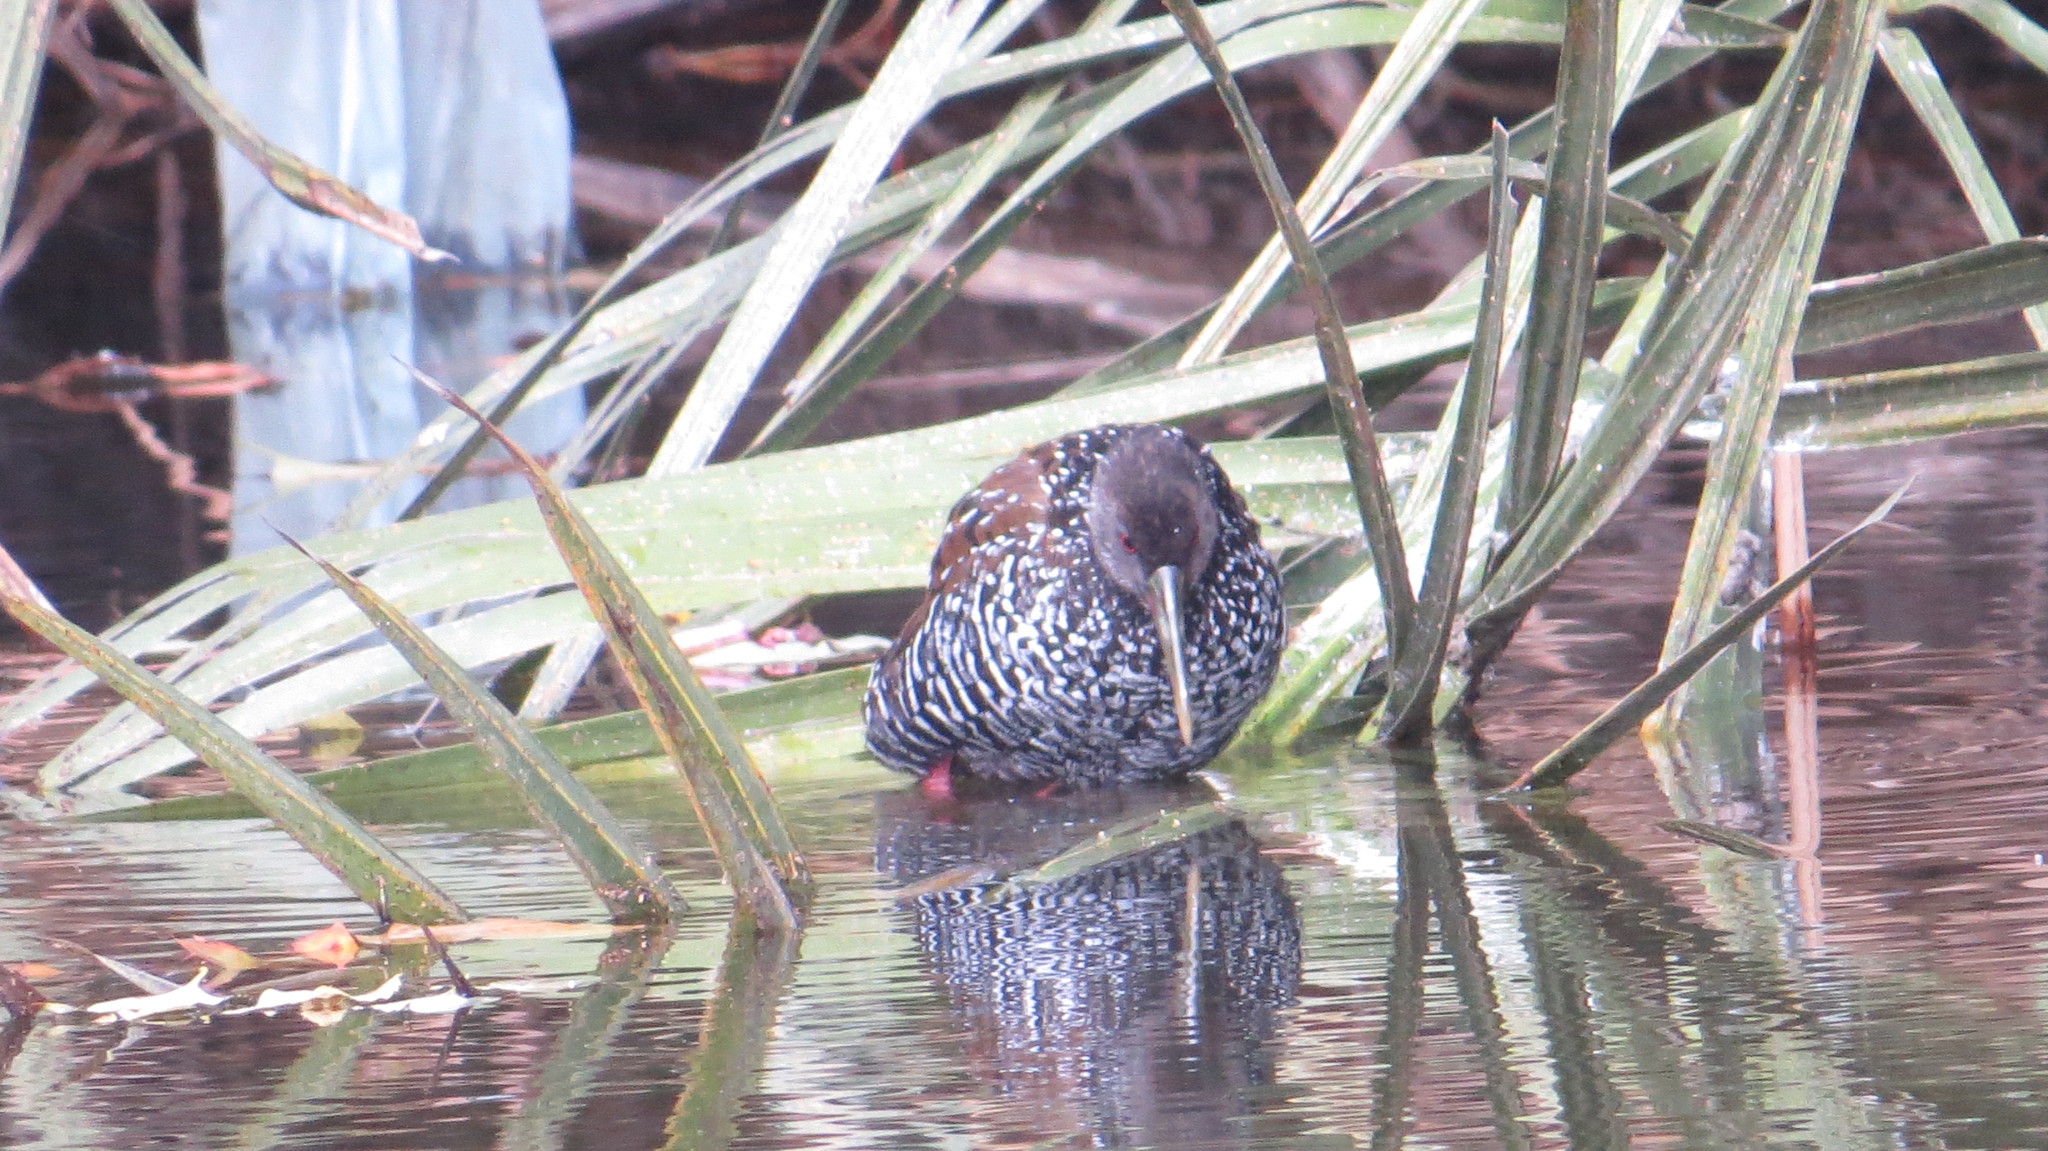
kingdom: Animalia
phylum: Chordata
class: Aves
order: Gruiformes
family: Rallidae
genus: Pardirallus
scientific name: Pardirallus maculatus
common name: Spotted rail
